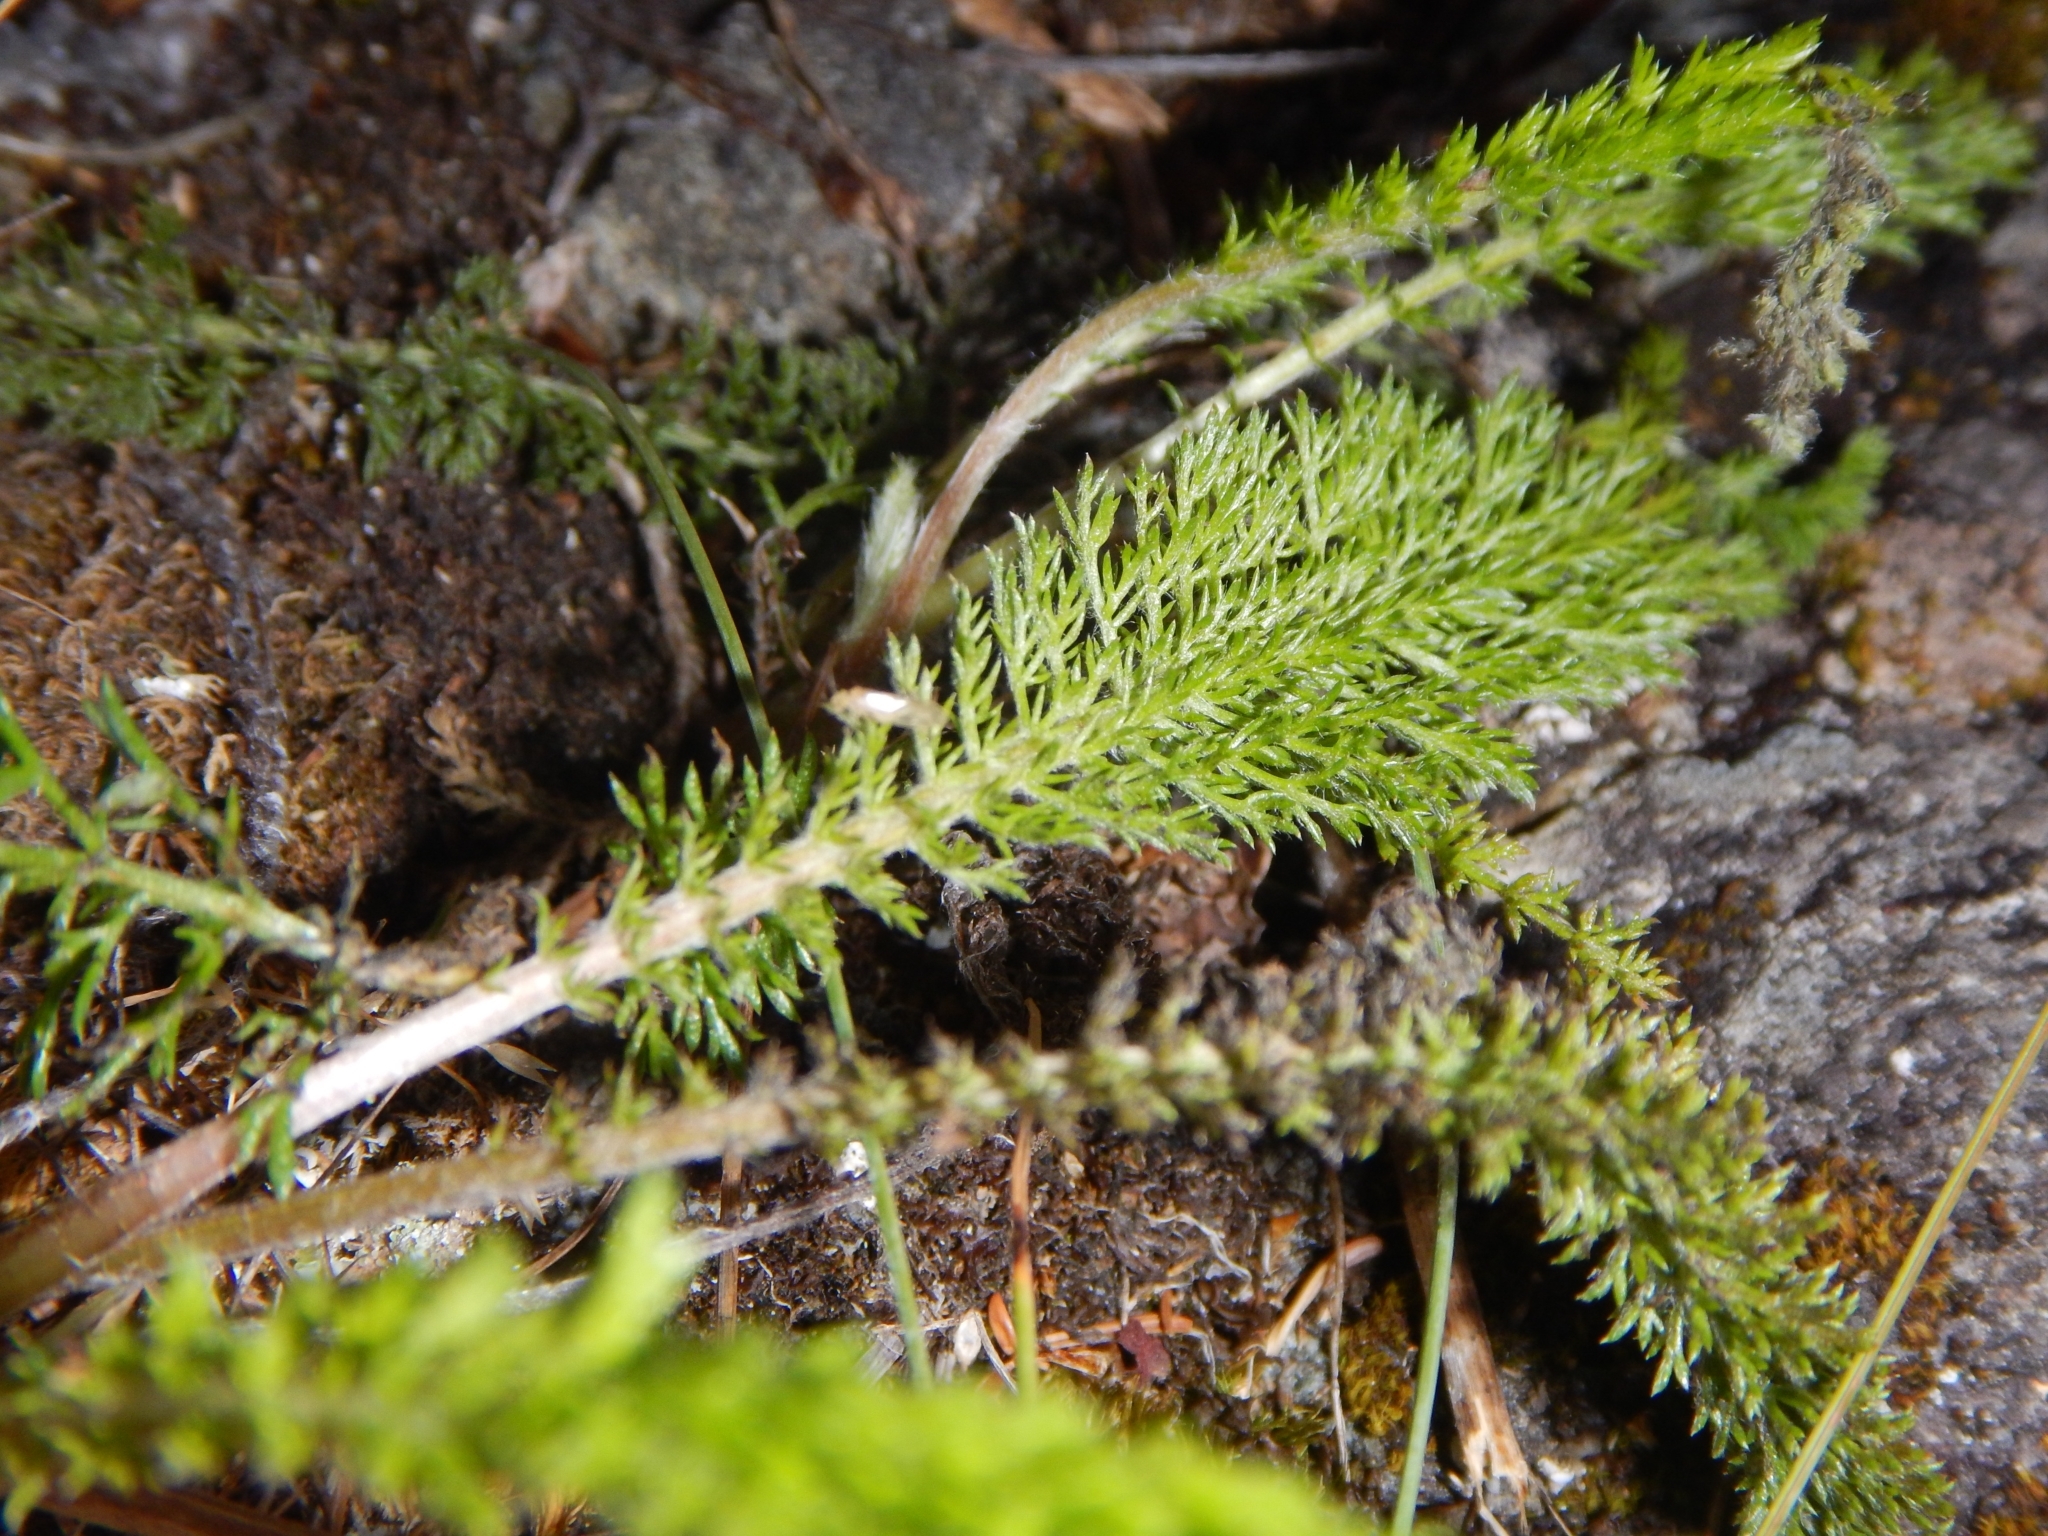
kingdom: Plantae
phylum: Tracheophyta
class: Magnoliopsida
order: Asterales
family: Asteraceae
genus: Achillea
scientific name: Achillea millefolium
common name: Yarrow
